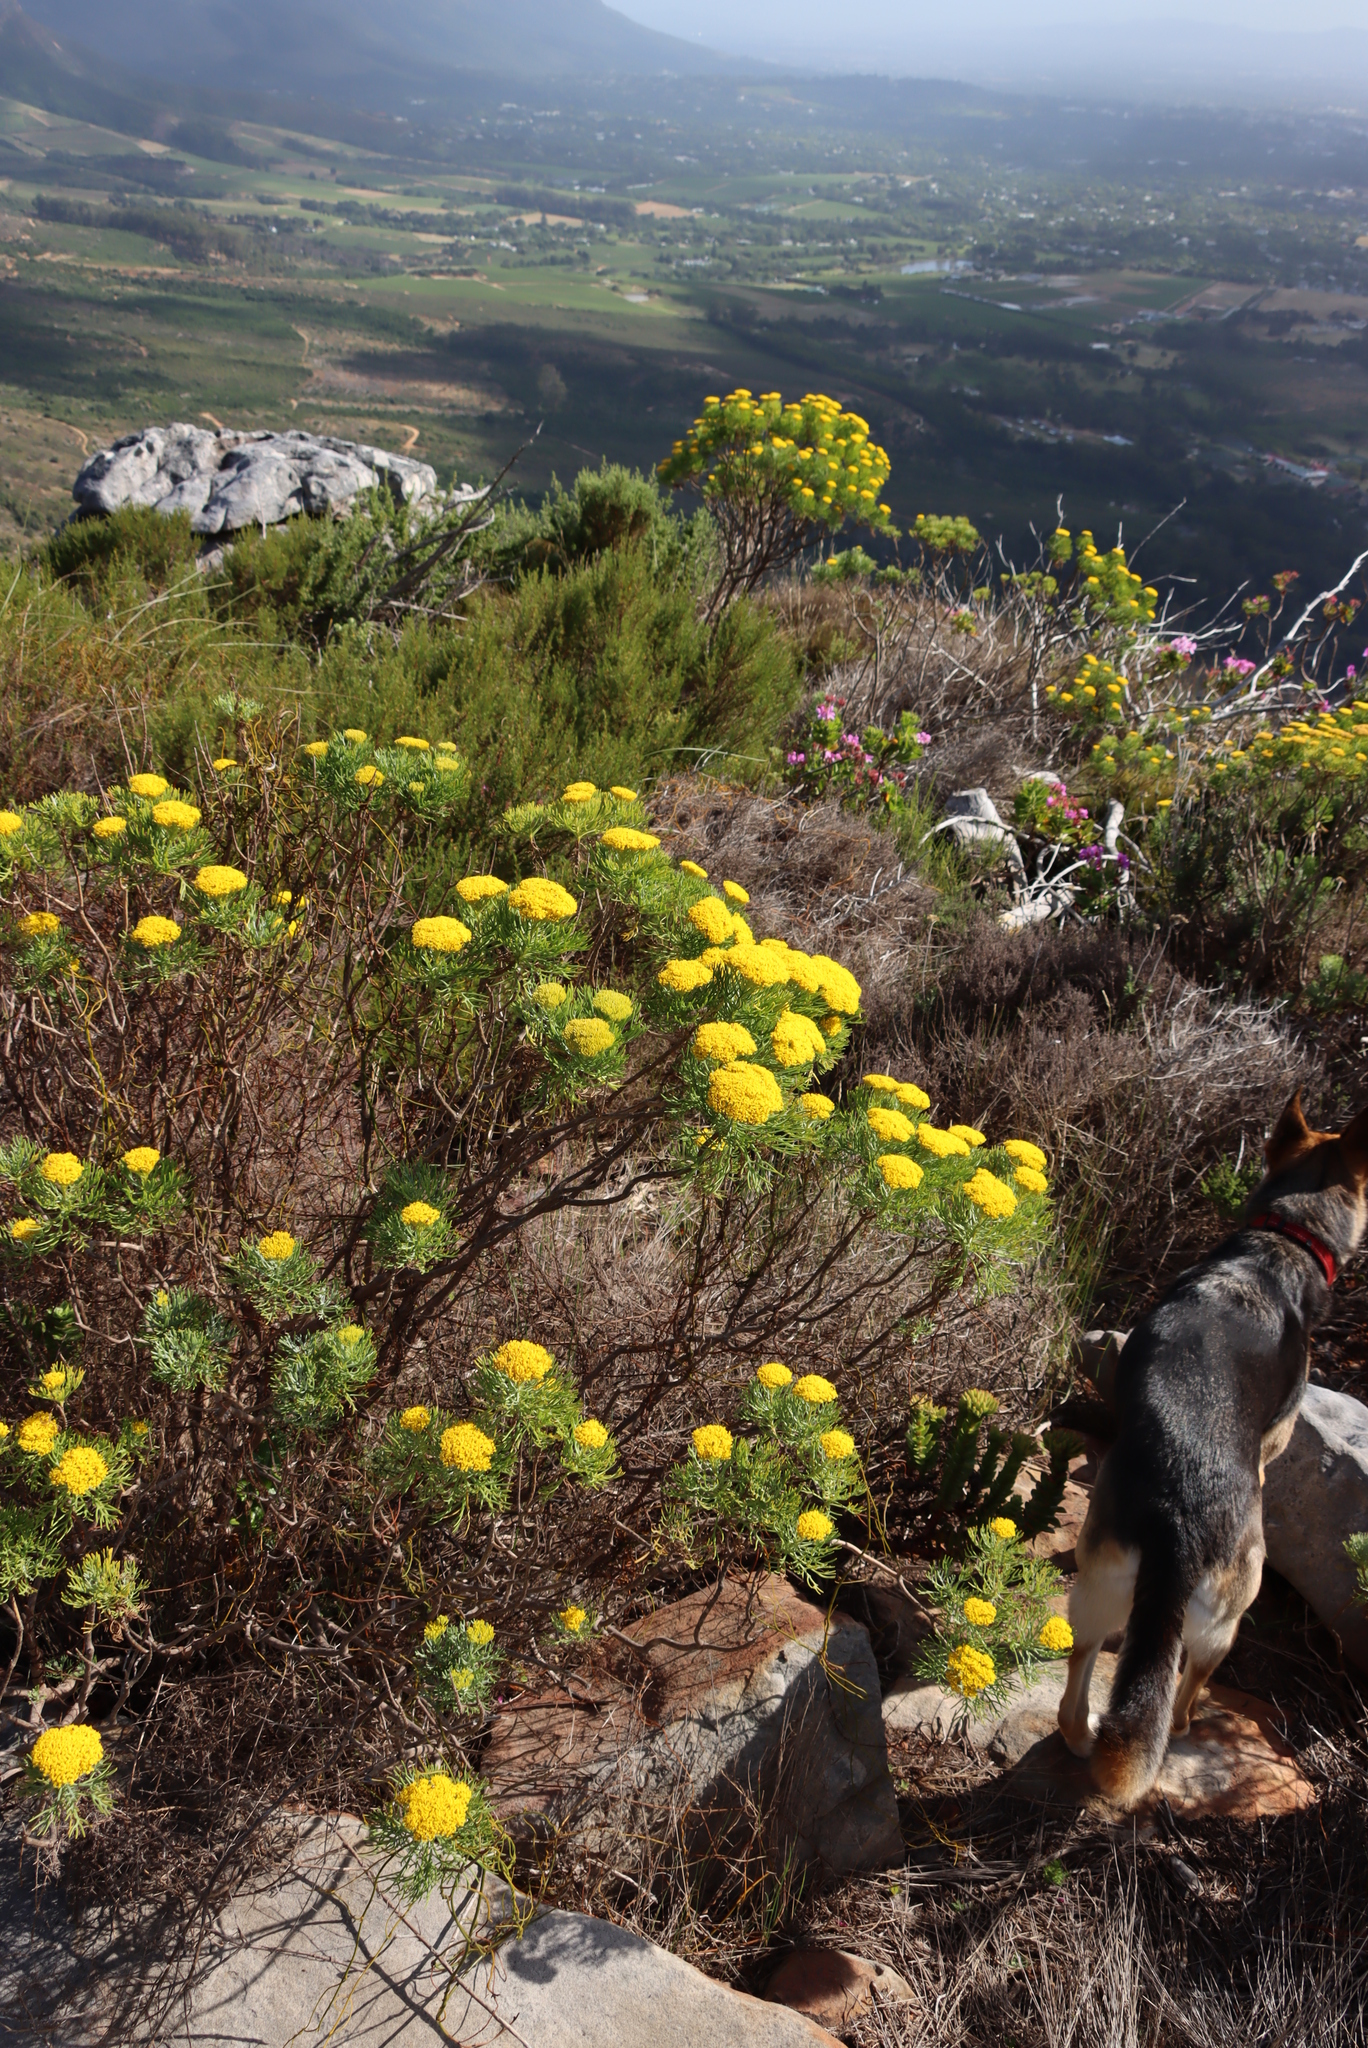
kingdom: Plantae
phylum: Tracheophyta
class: Magnoliopsida
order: Asterales
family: Asteraceae
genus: Hymenolepis
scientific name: Hymenolepis crithmifolia
